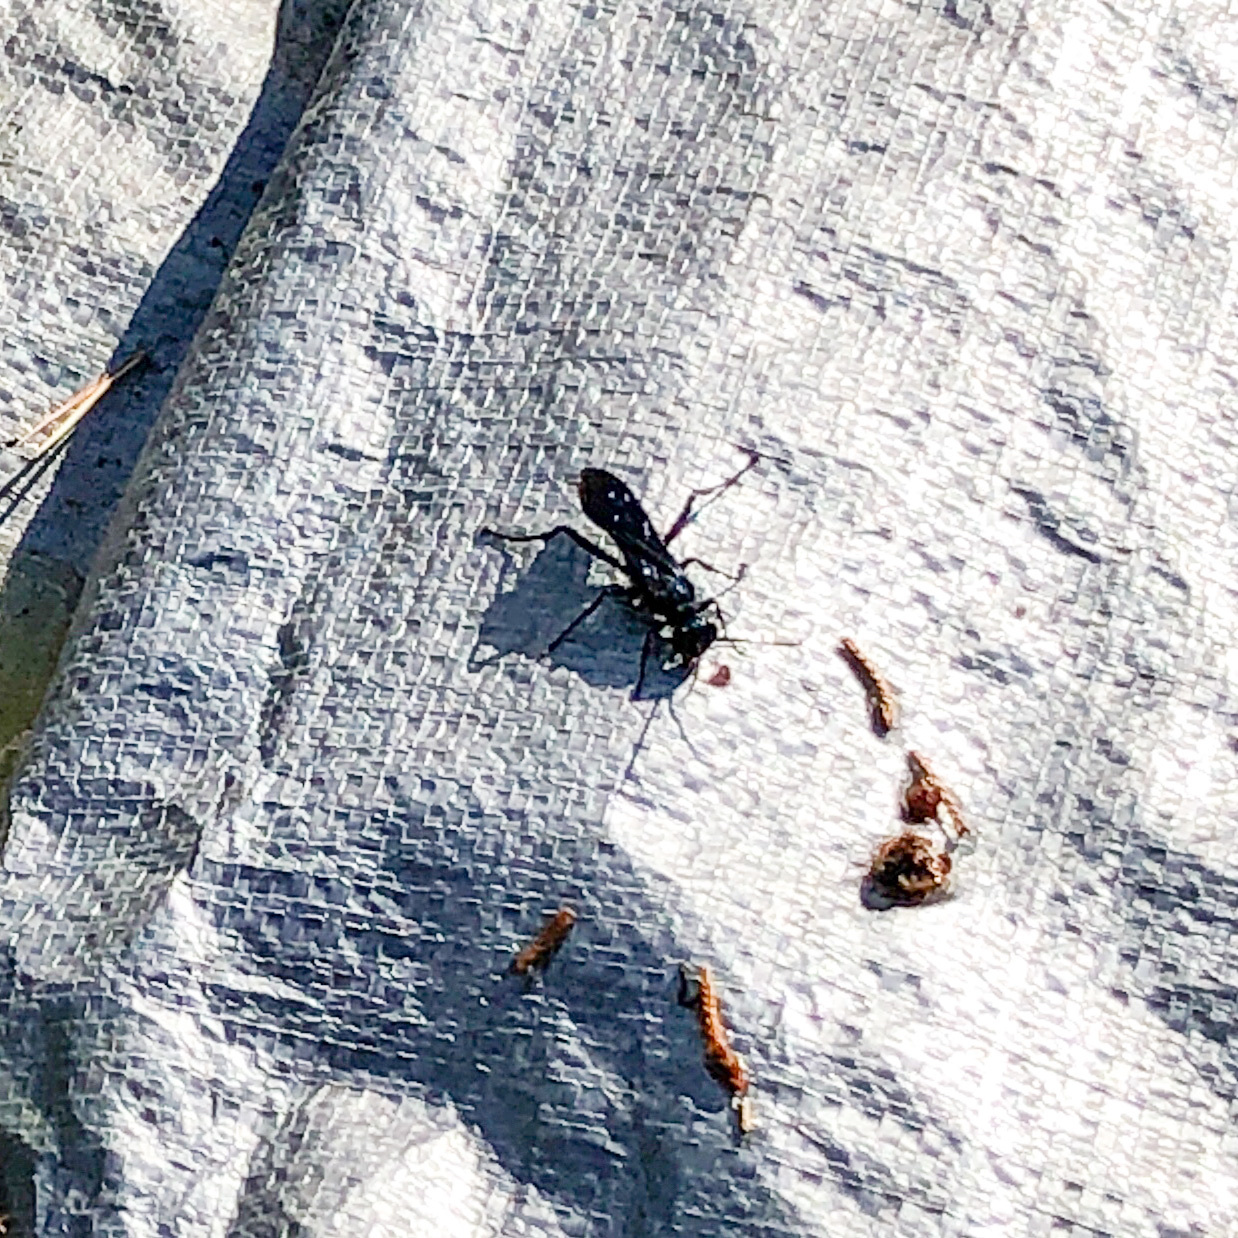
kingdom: Animalia
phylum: Arthropoda
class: Insecta
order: Hymenoptera
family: Sphecidae
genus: Chalybion
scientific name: Chalybion californicum
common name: Mud dauber
